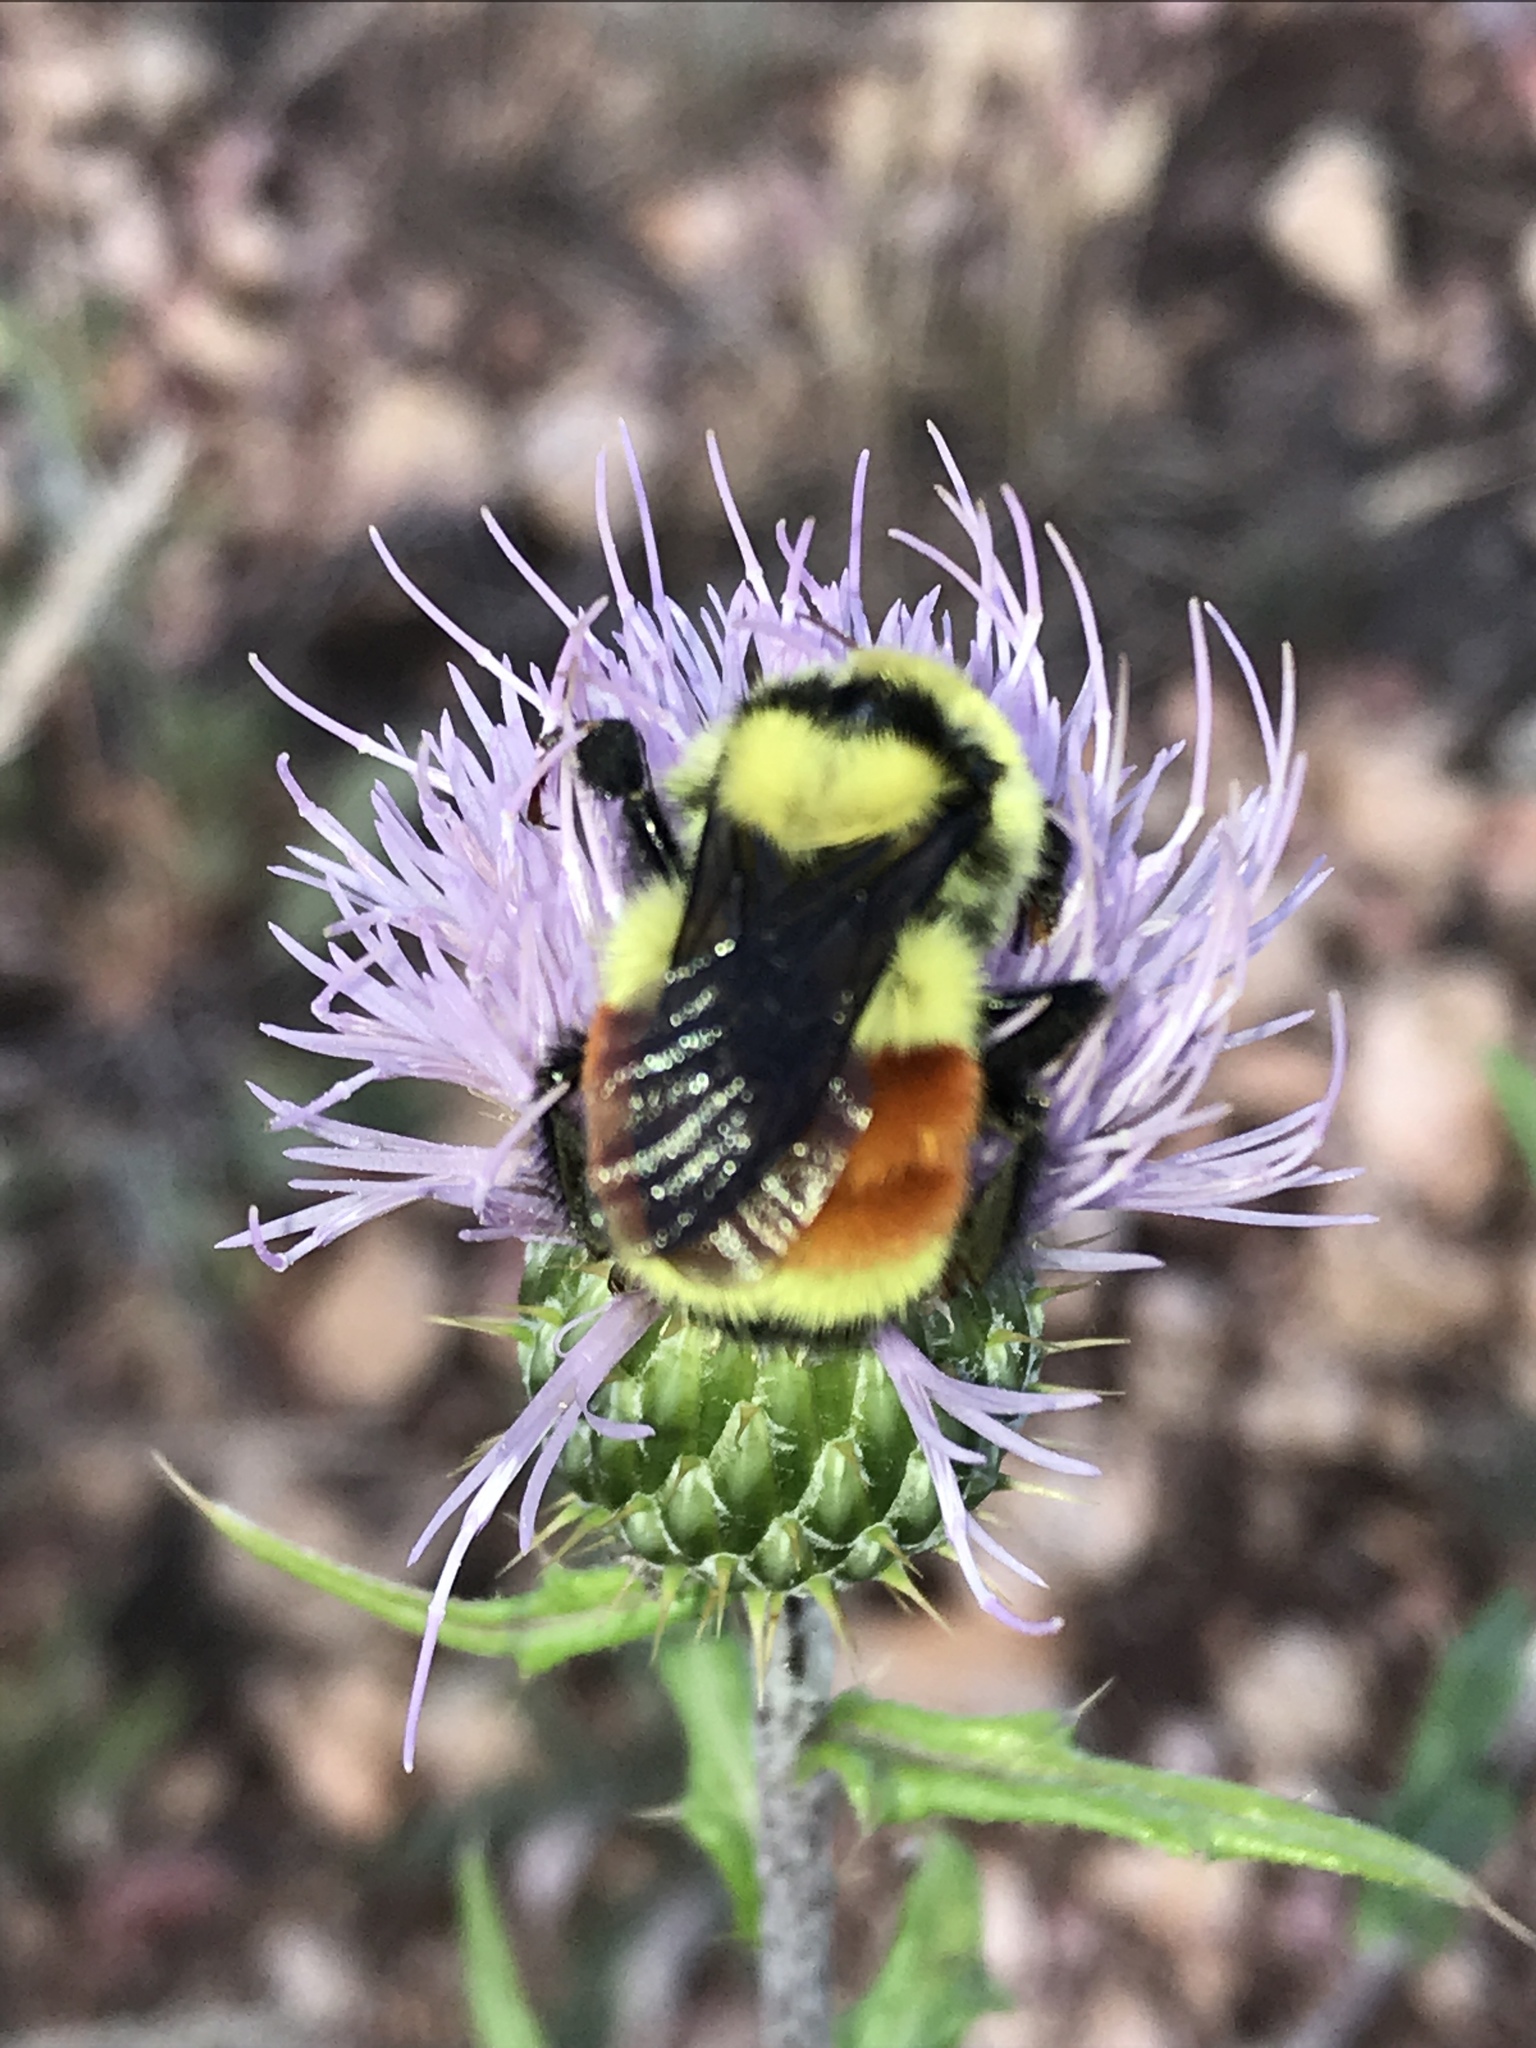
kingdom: Animalia
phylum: Arthropoda
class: Insecta
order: Hymenoptera
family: Apidae
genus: Bombus
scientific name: Bombus huntii
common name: Hunt bumble bee
